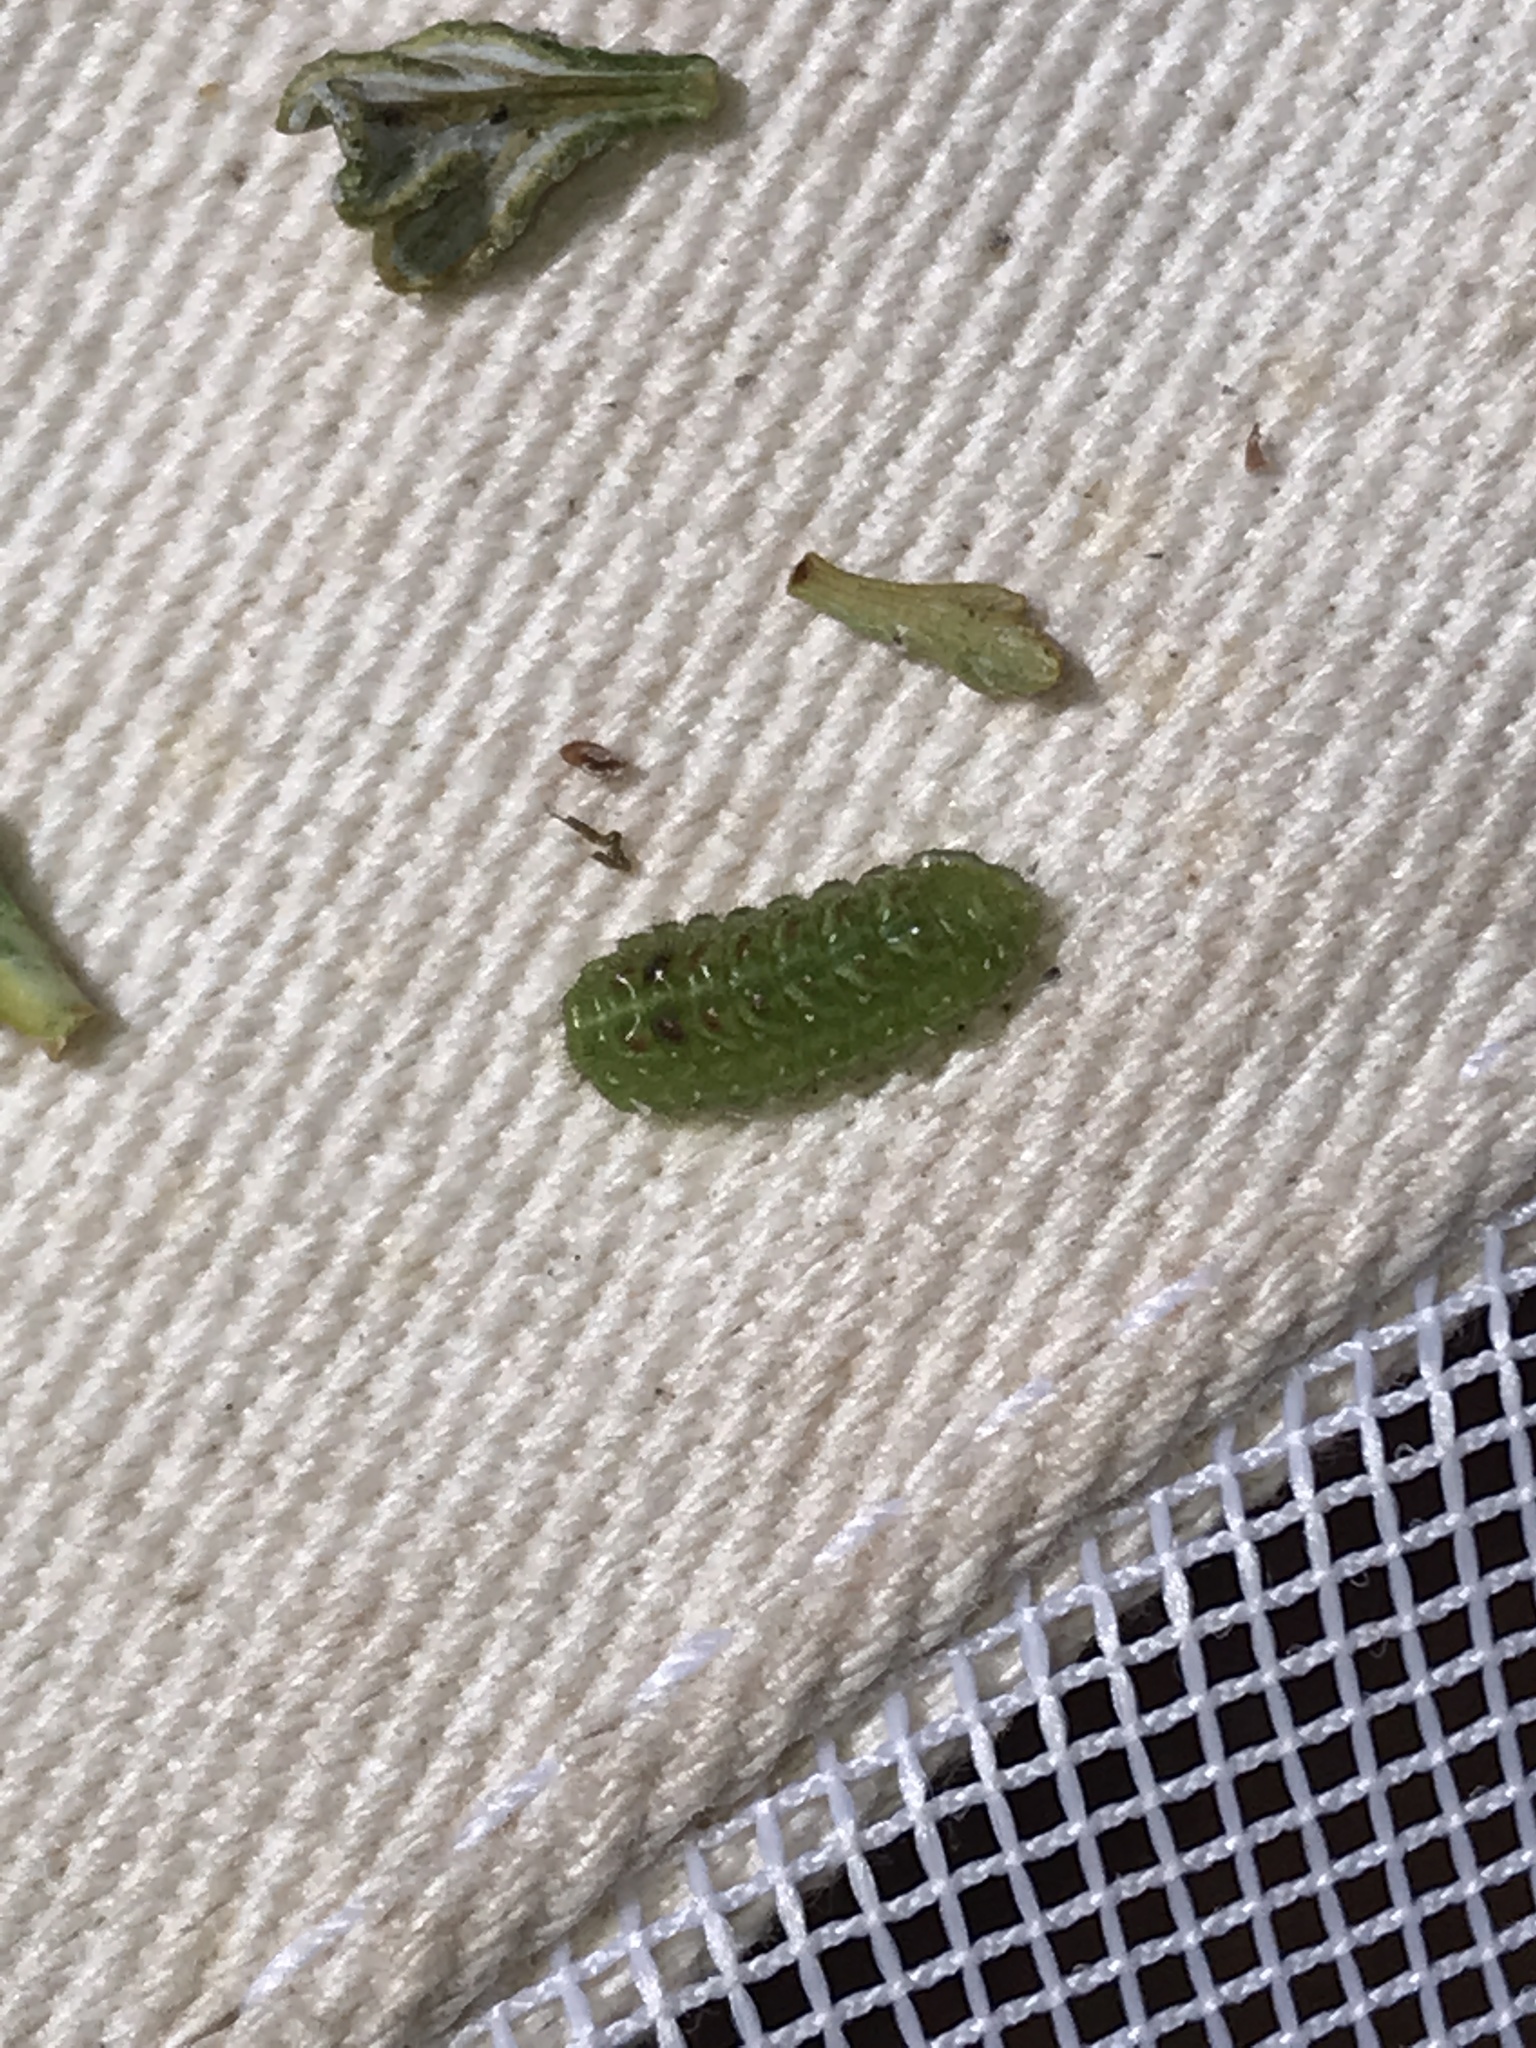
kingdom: Animalia
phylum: Arthropoda
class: Insecta
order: Lepidoptera
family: Lycaenidae
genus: Callophrys
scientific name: Callophrys fotis
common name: Desert elfin
